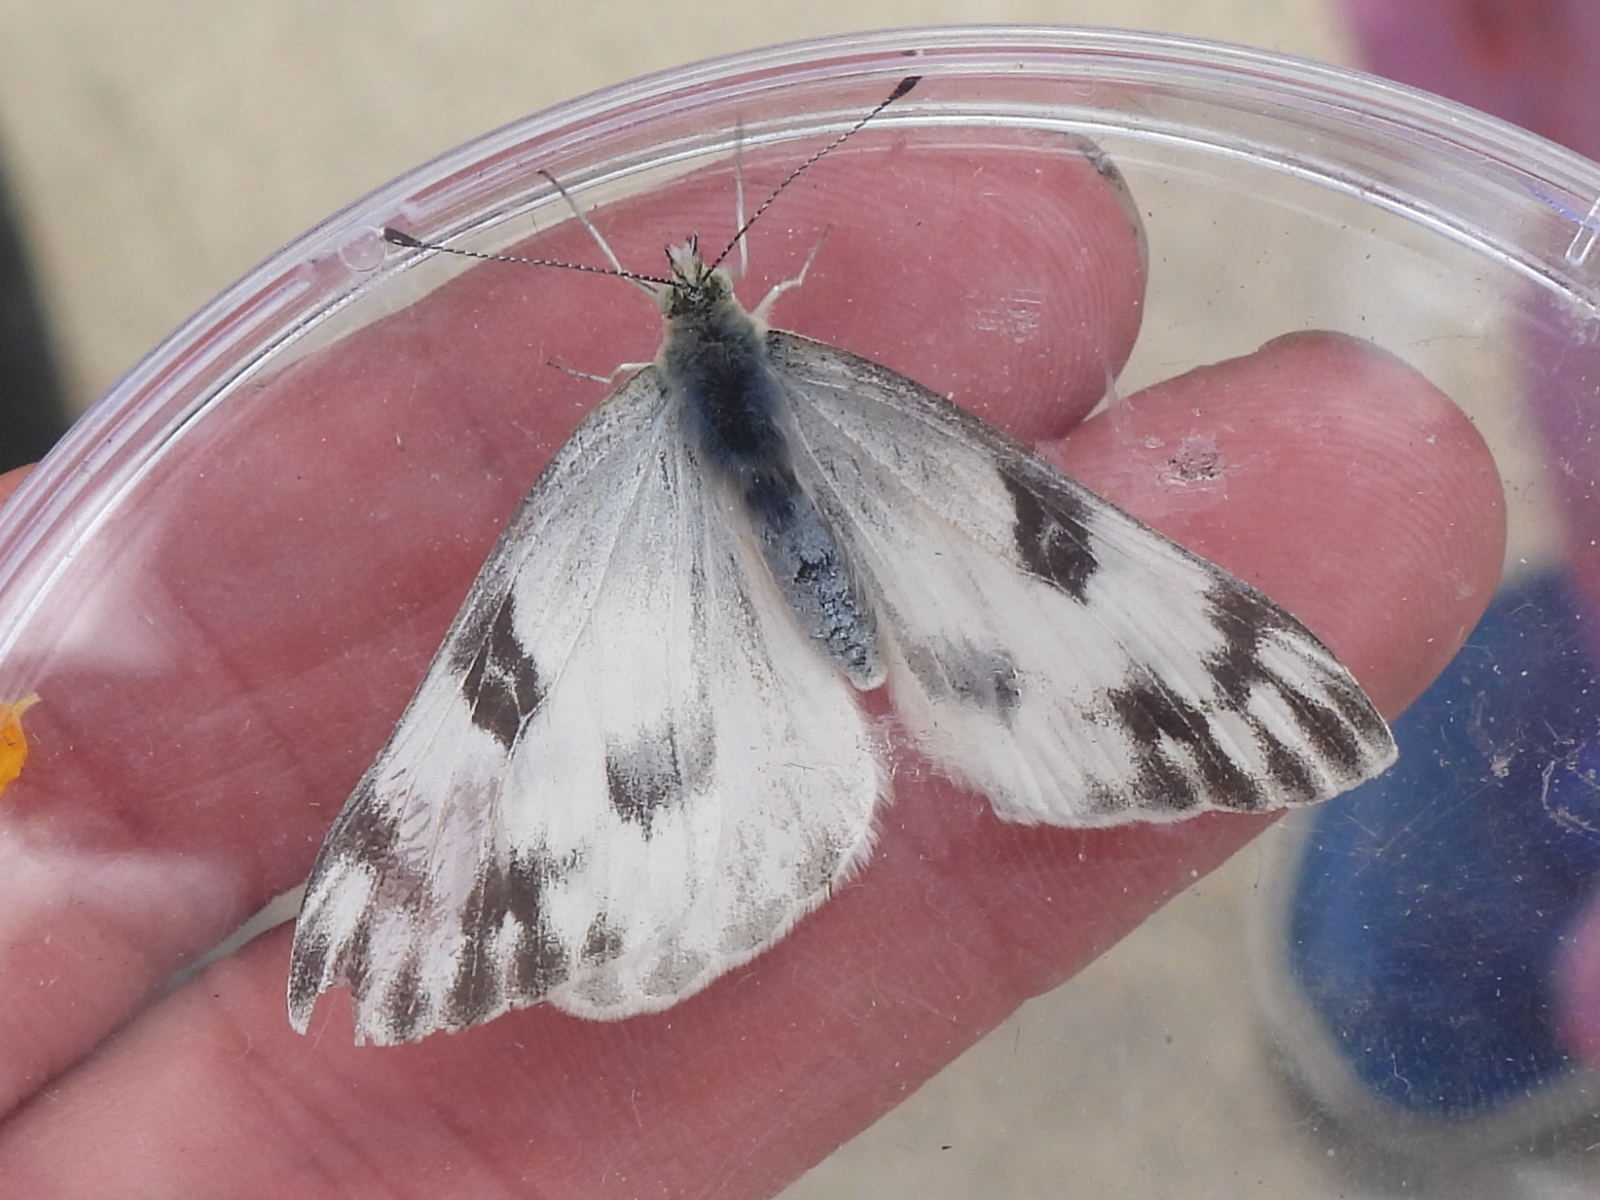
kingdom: Animalia
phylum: Arthropoda
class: Insecta
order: Lepidoptera
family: Pieridae
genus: Pontia
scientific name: Pontia protodice
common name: Checkered white
